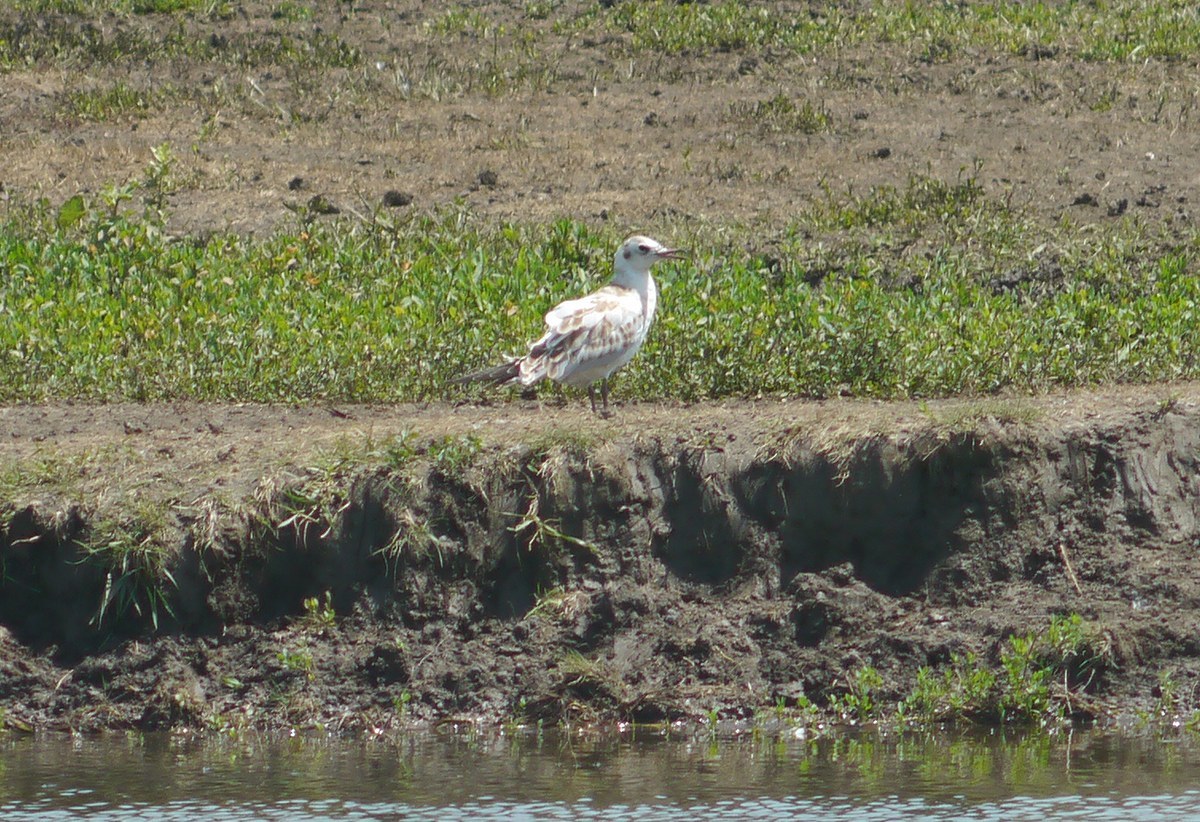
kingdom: Animalia
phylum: Chordata
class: Aves
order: Charadriiformes
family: Laridae
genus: Chroicocephalus
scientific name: Chroicocephalus ridibundus
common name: Black-headed gull
